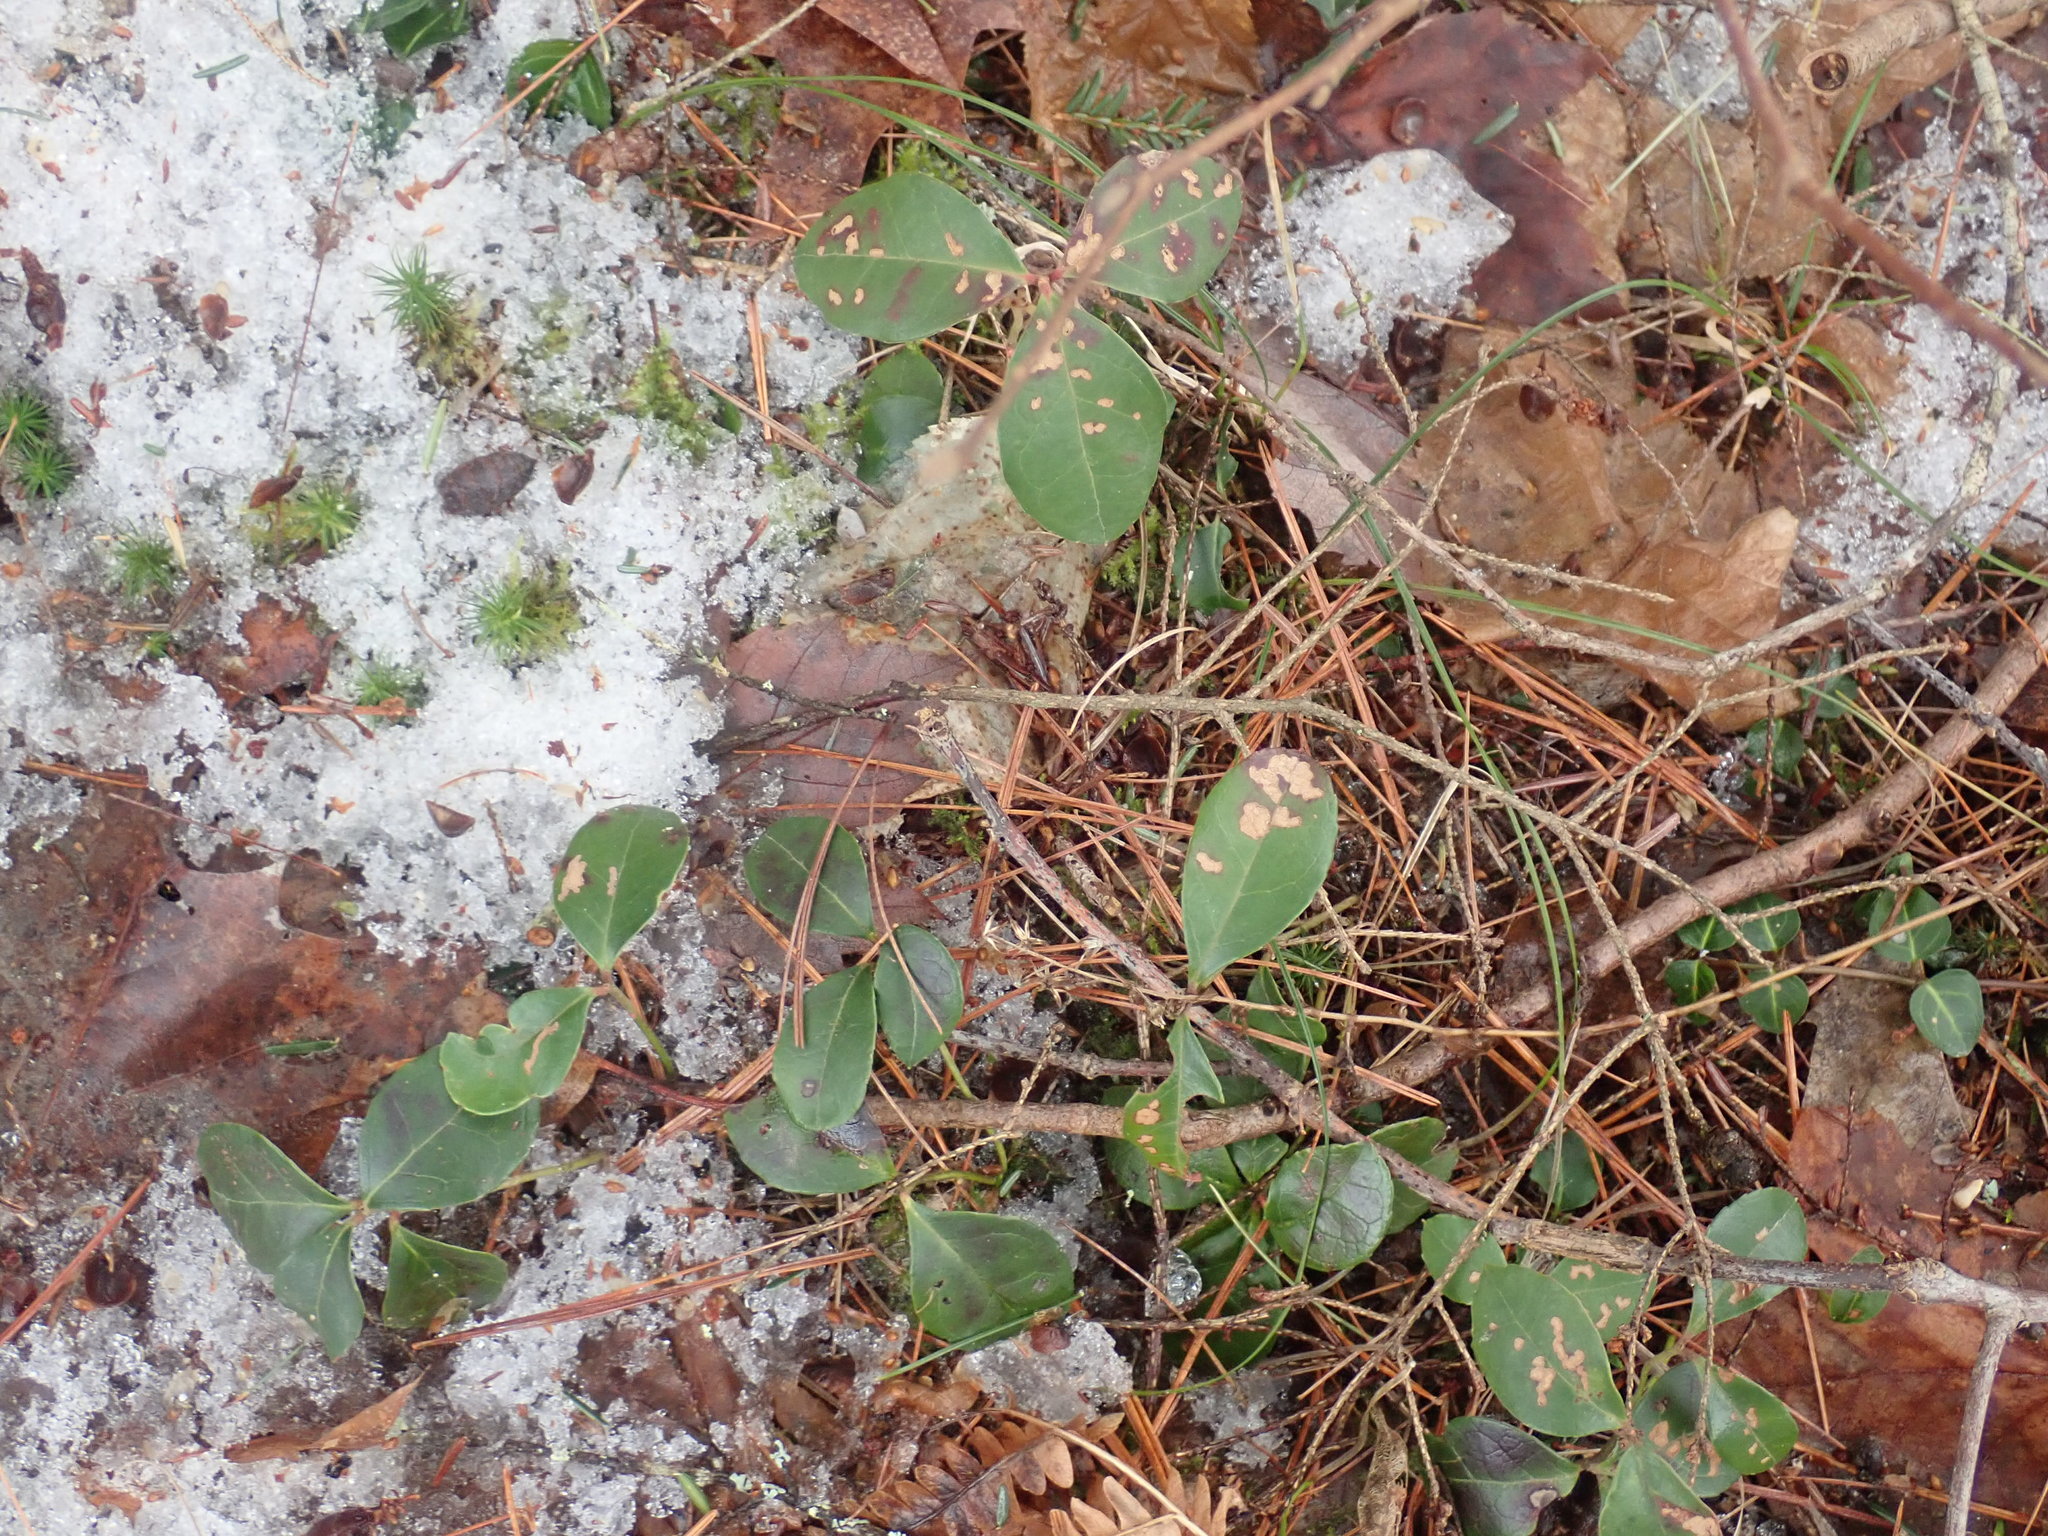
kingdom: Plantae
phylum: Tracheophyta
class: Magnoliopsida
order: Ericales
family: Ericaceae
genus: Gaultheria
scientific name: Gaultheria procumbens
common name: Checkerberry
